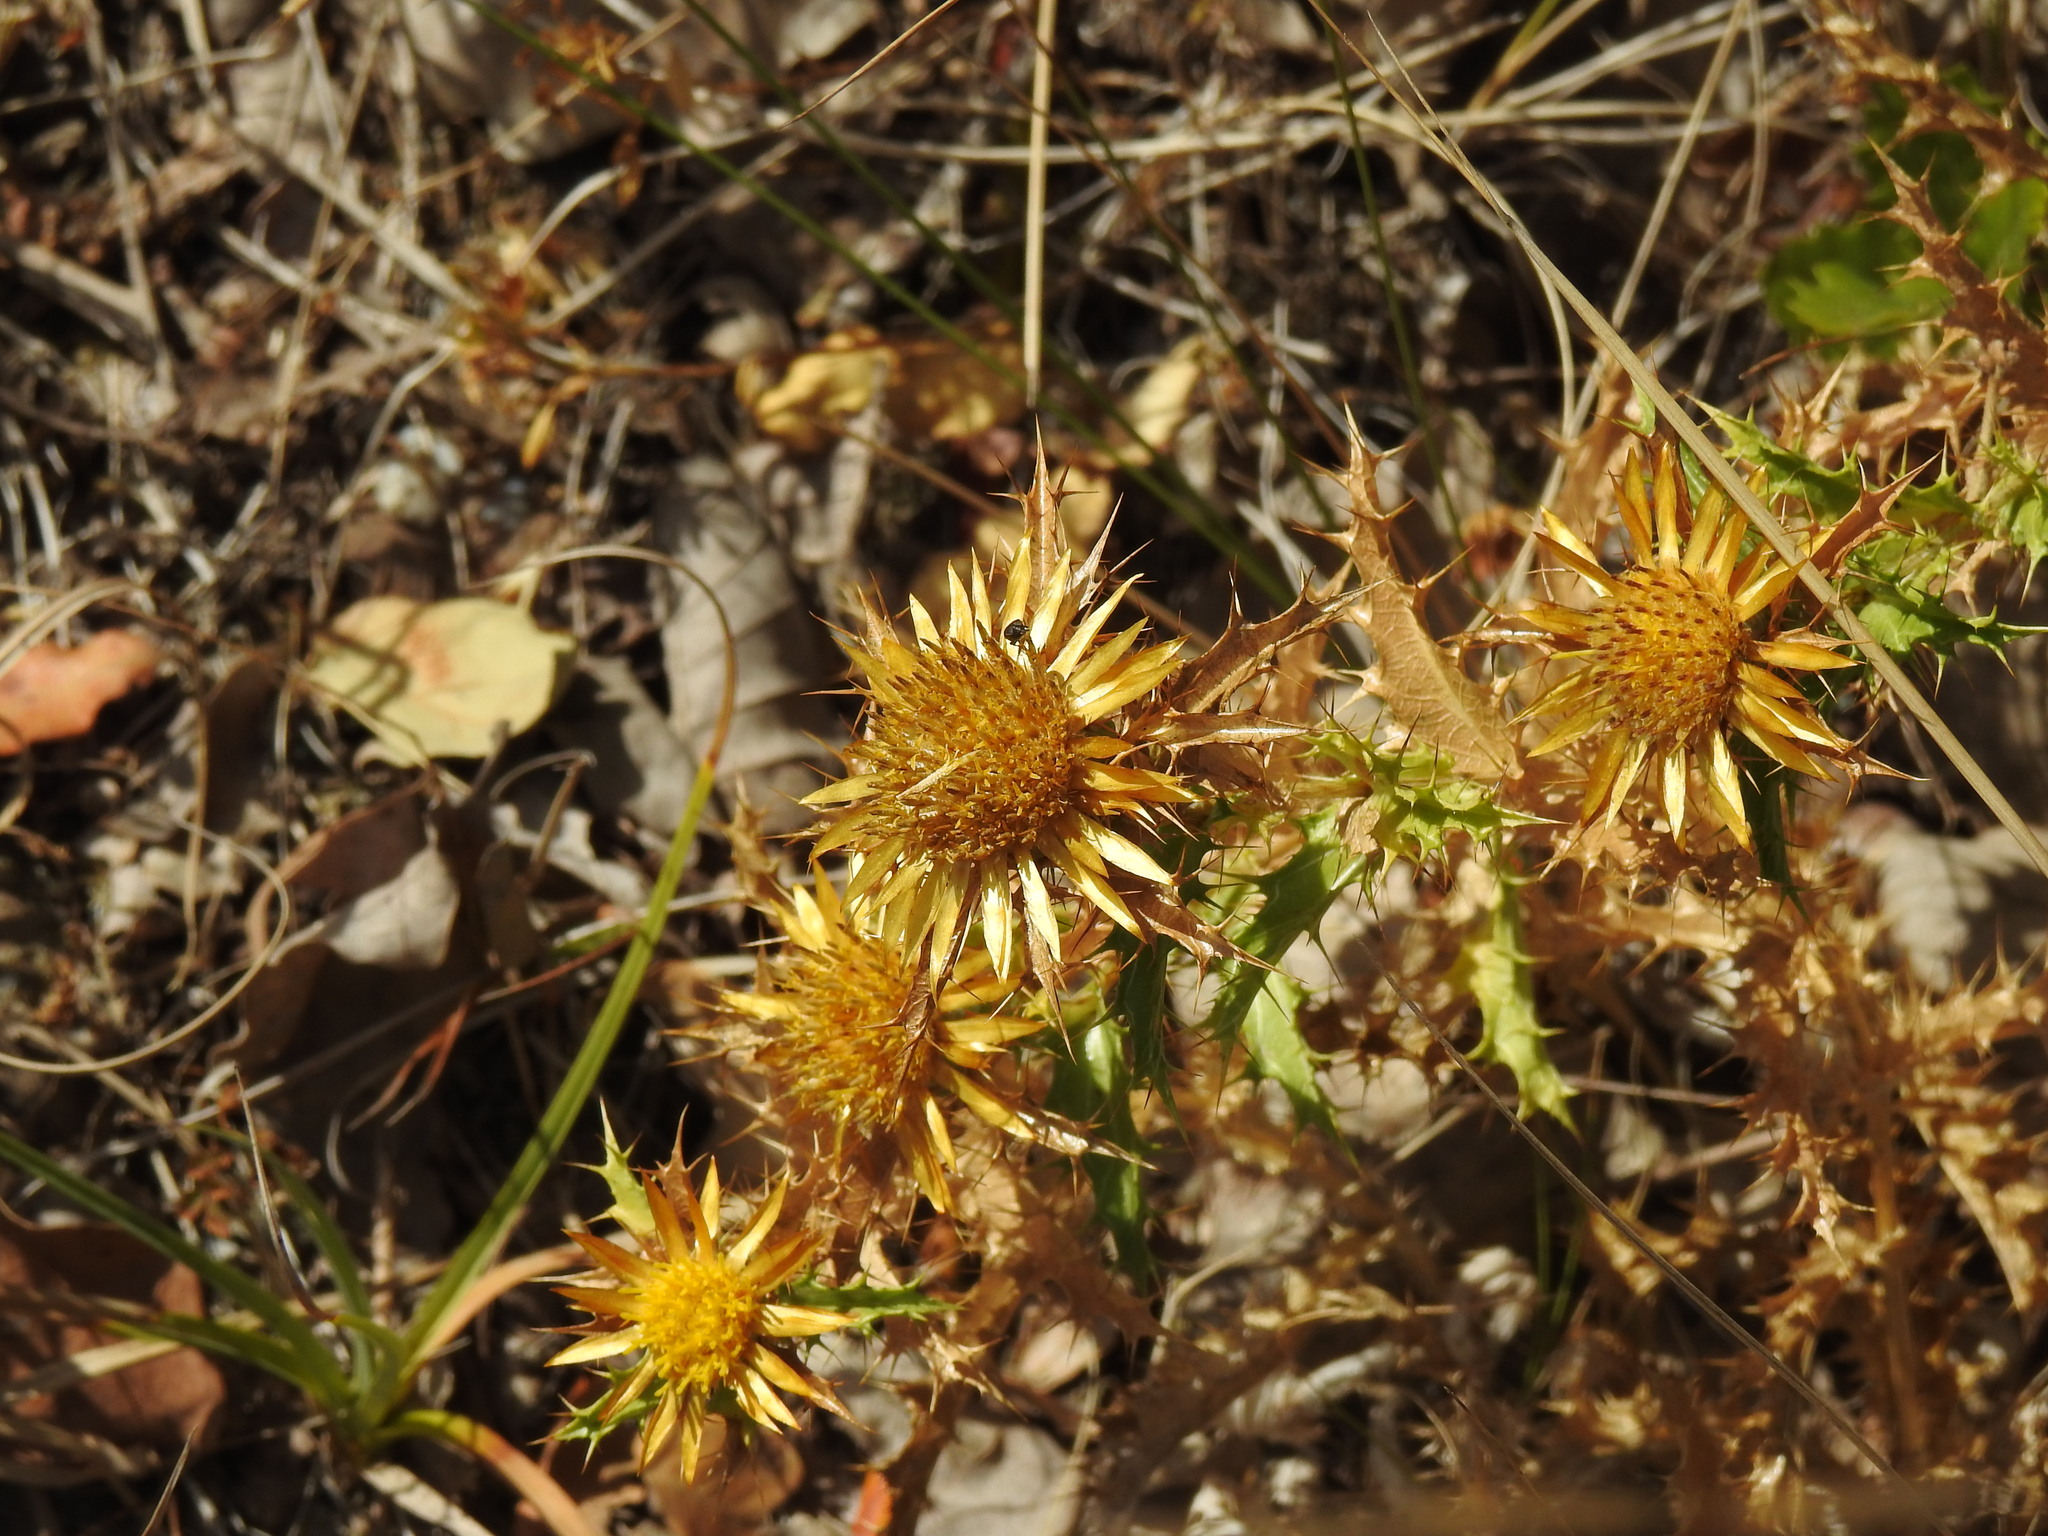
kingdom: Plantae
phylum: Tracheophyta
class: Magnoliopsida
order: Asterales
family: Asteraceae
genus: Carlina
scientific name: Carlina hispanica
